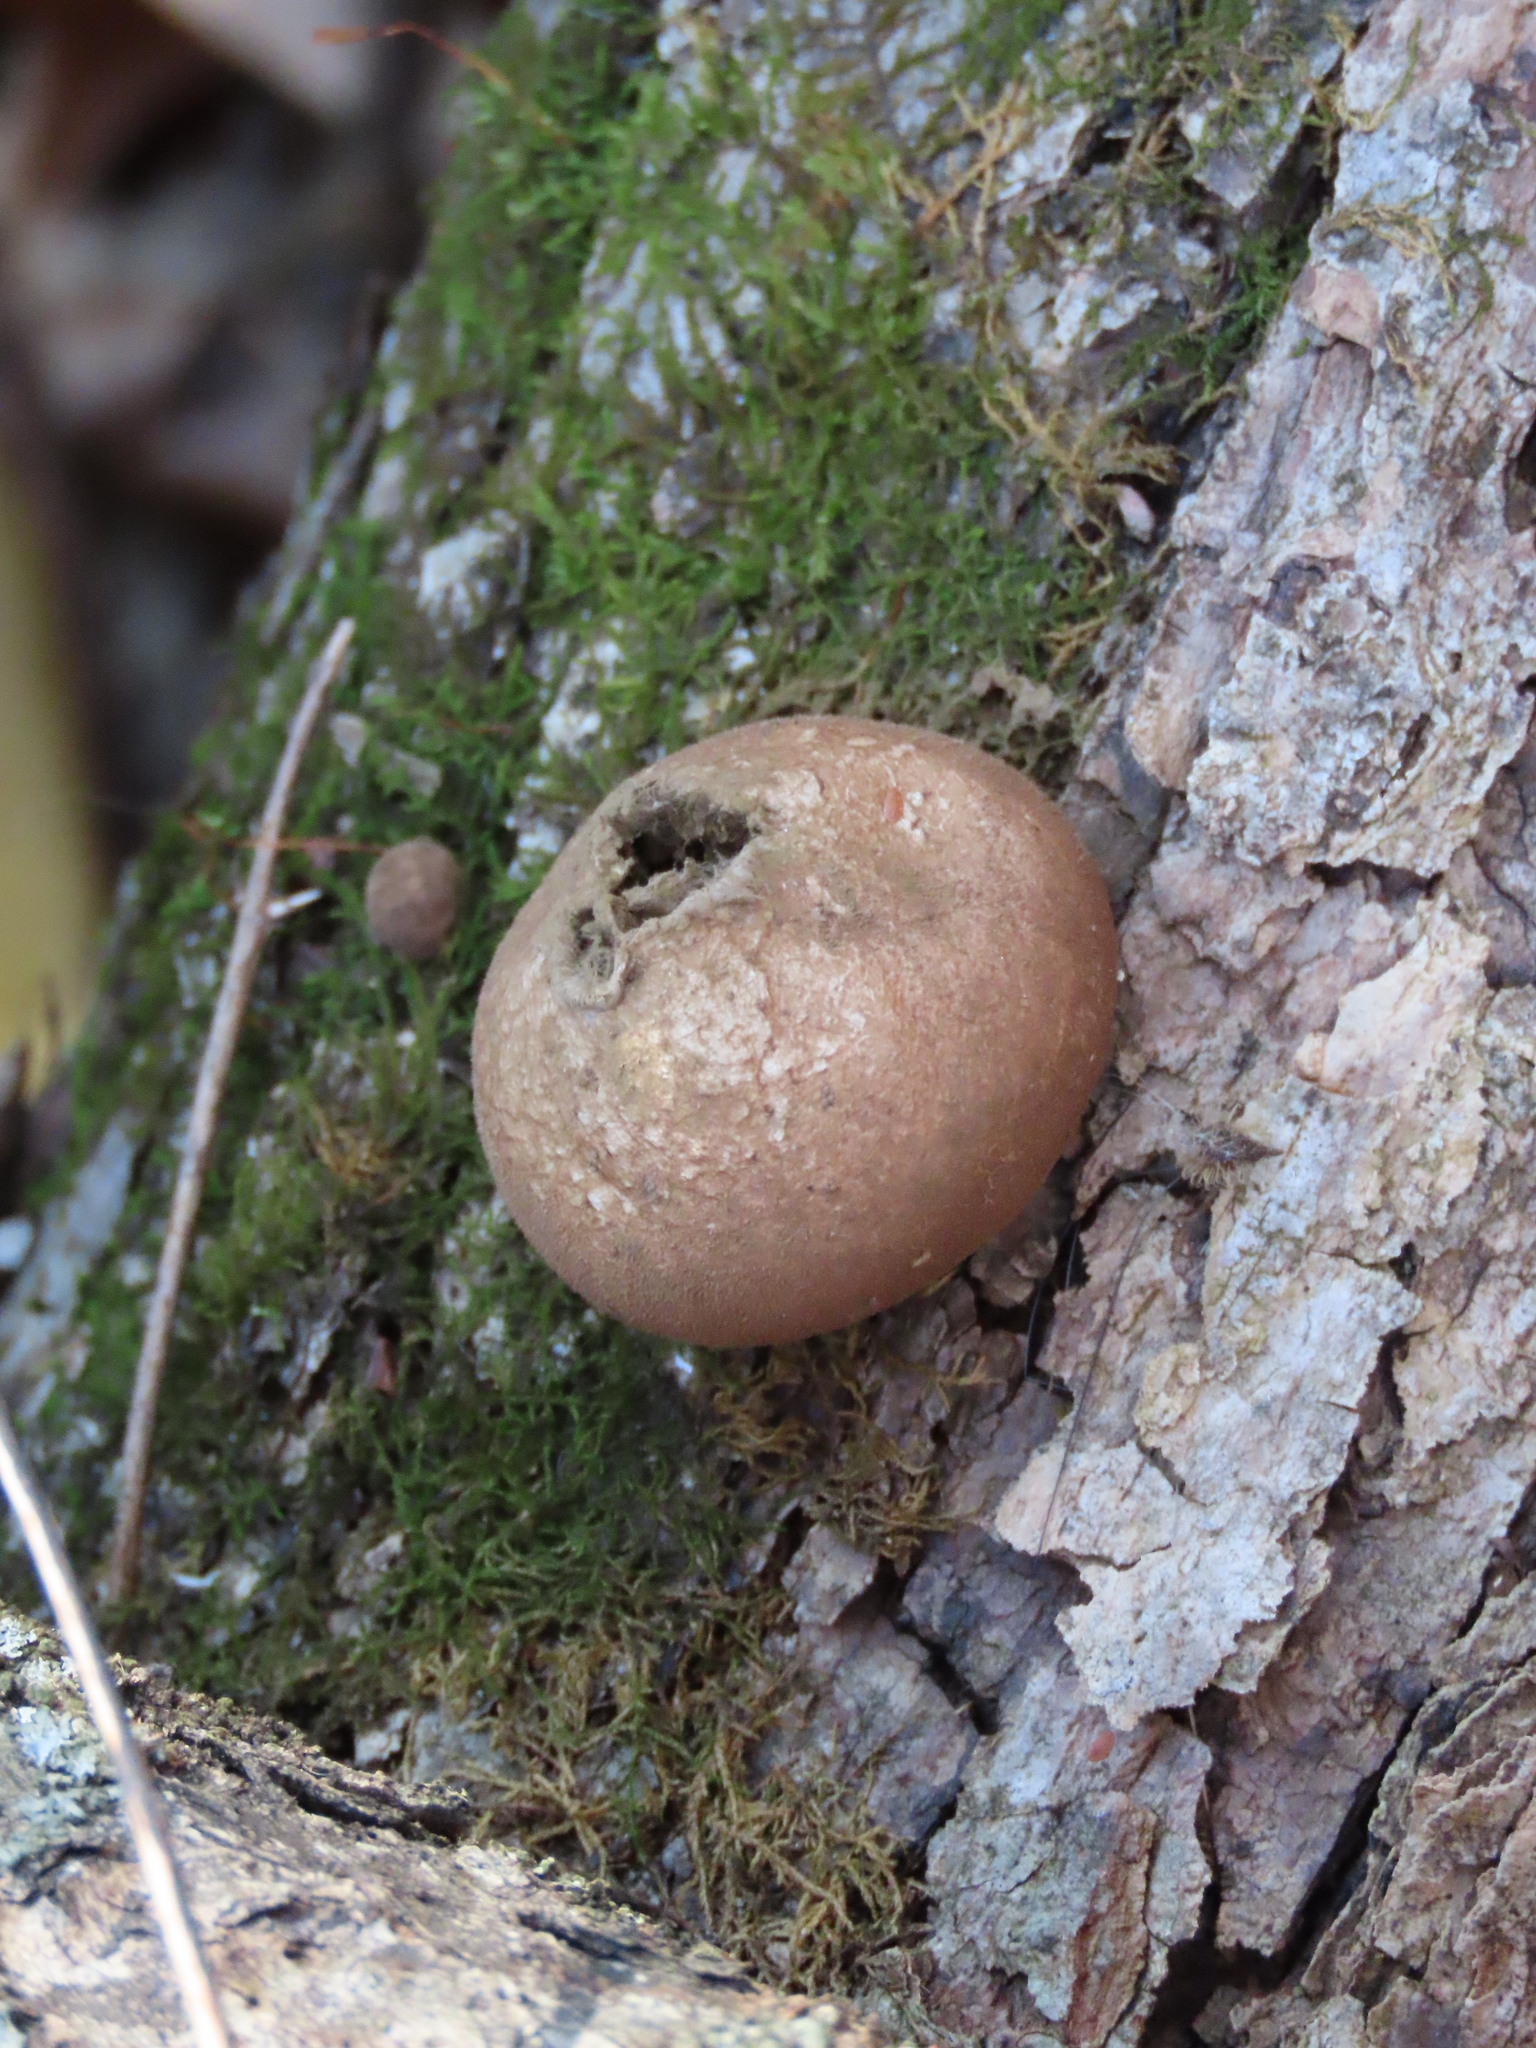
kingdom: Fungi
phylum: Basidiomycota
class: Agaricomycetes
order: Agaricales
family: Lycoperdaceae
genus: Apioperdon
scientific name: Apioperdon pyriforme
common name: Pear-shaped puffball
